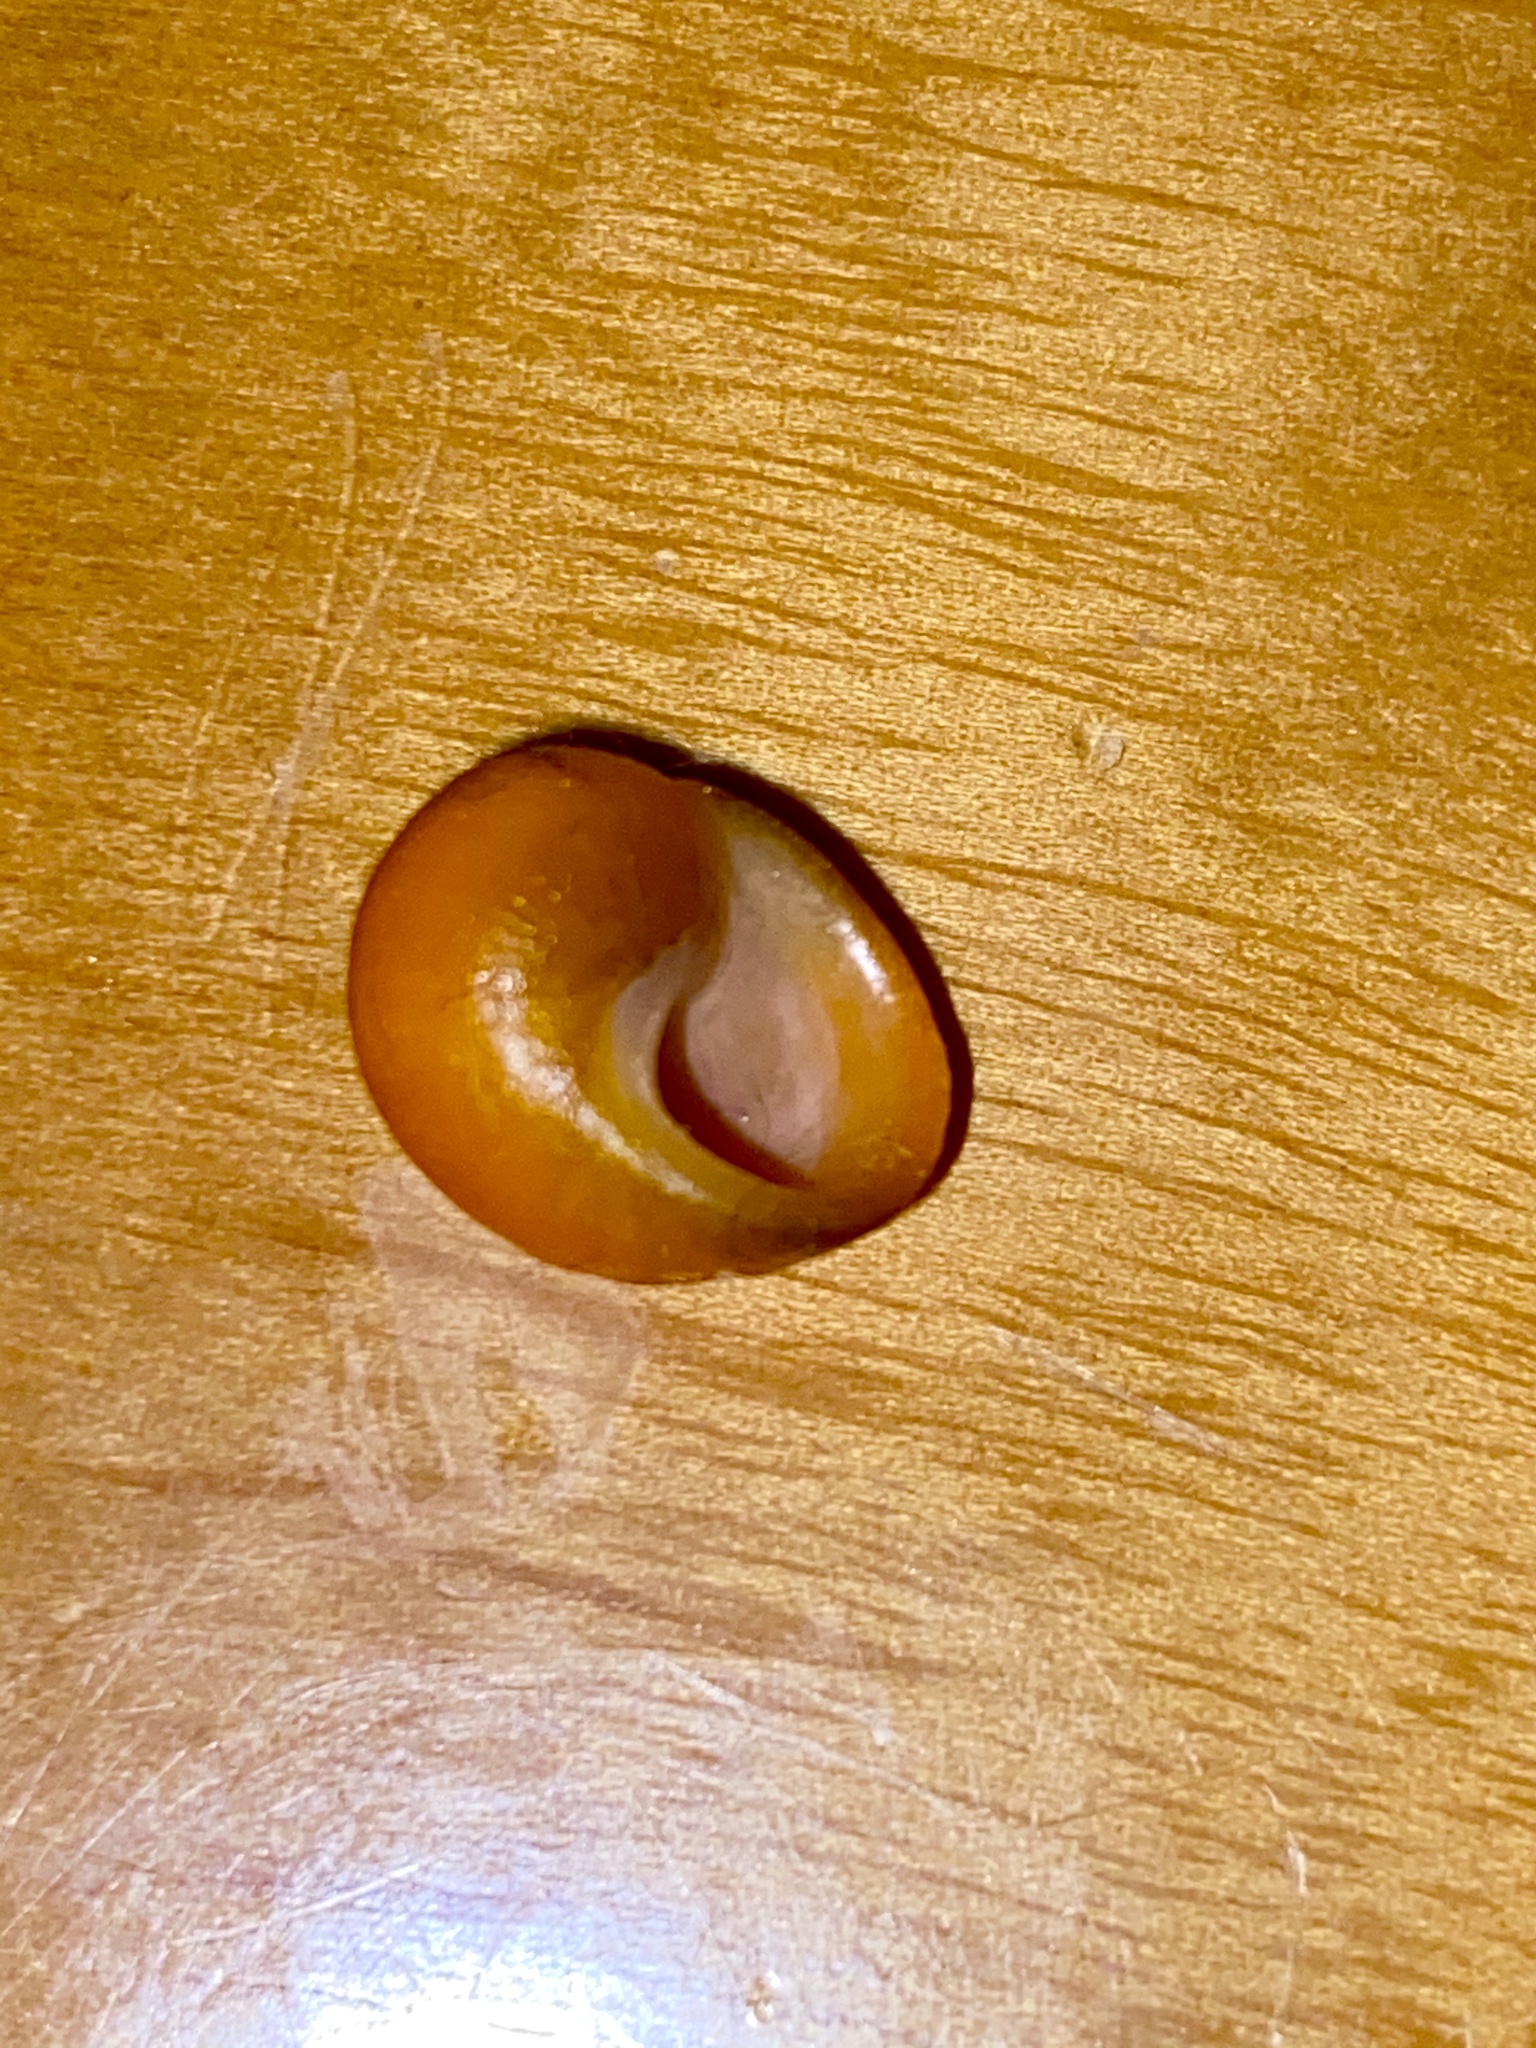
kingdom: Animalia
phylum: Mollusca
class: Gastropoda
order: Littorinimorpha
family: Littorinidae
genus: Littorina
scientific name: Littorina obtusata
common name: Flat periwinkle
